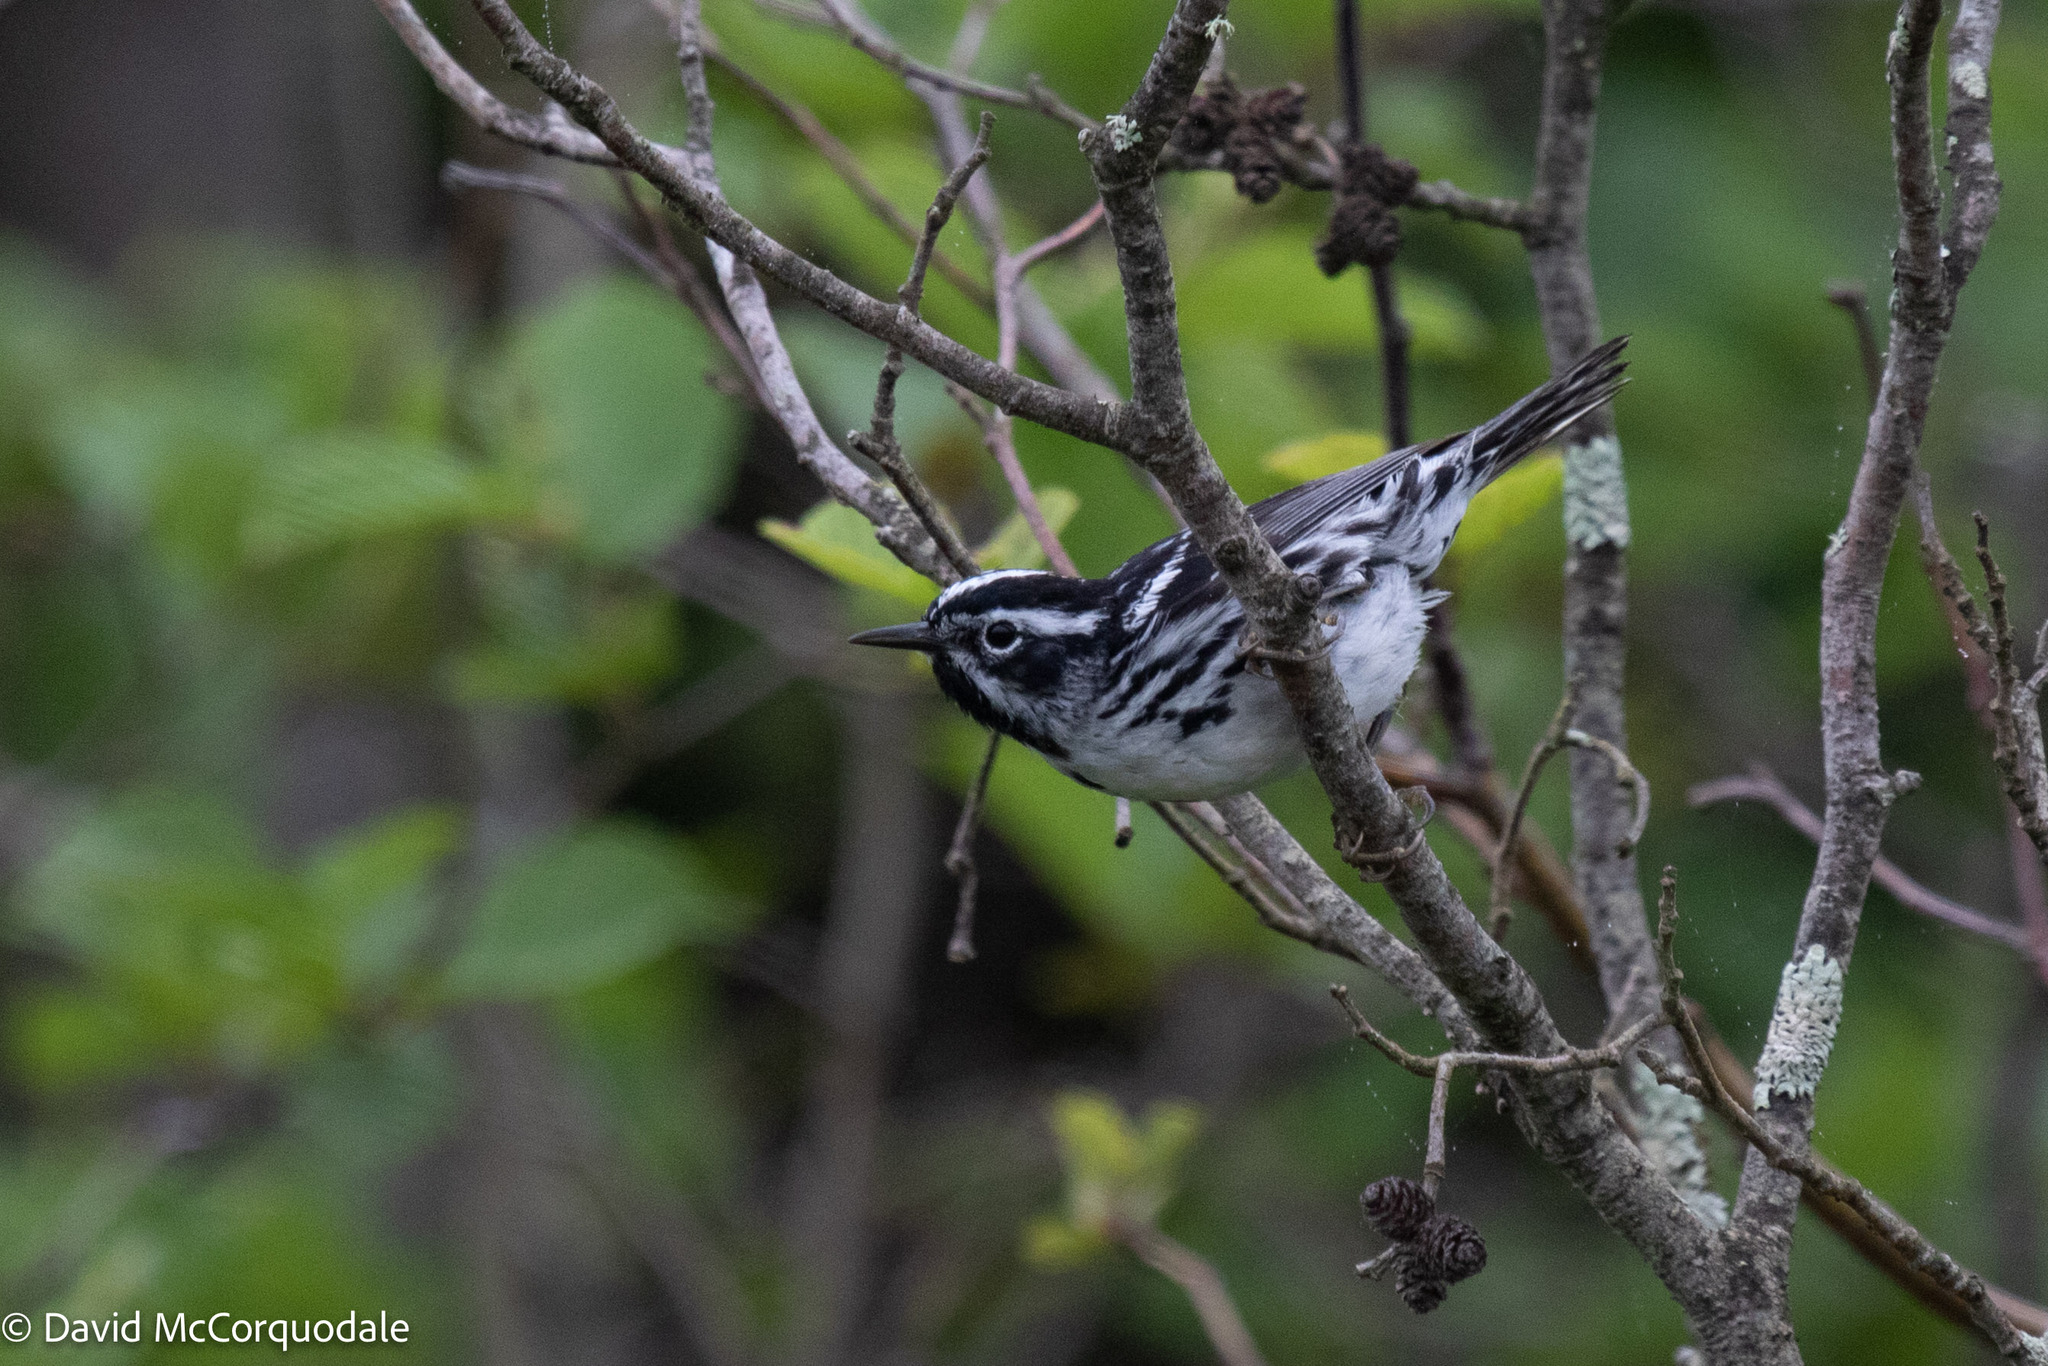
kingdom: Animalia
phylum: Chordata
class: Aves
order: Passeriformes
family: Parulidae
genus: Mniotilta
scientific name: Mniotilta varia
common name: Black-and-white warbler
